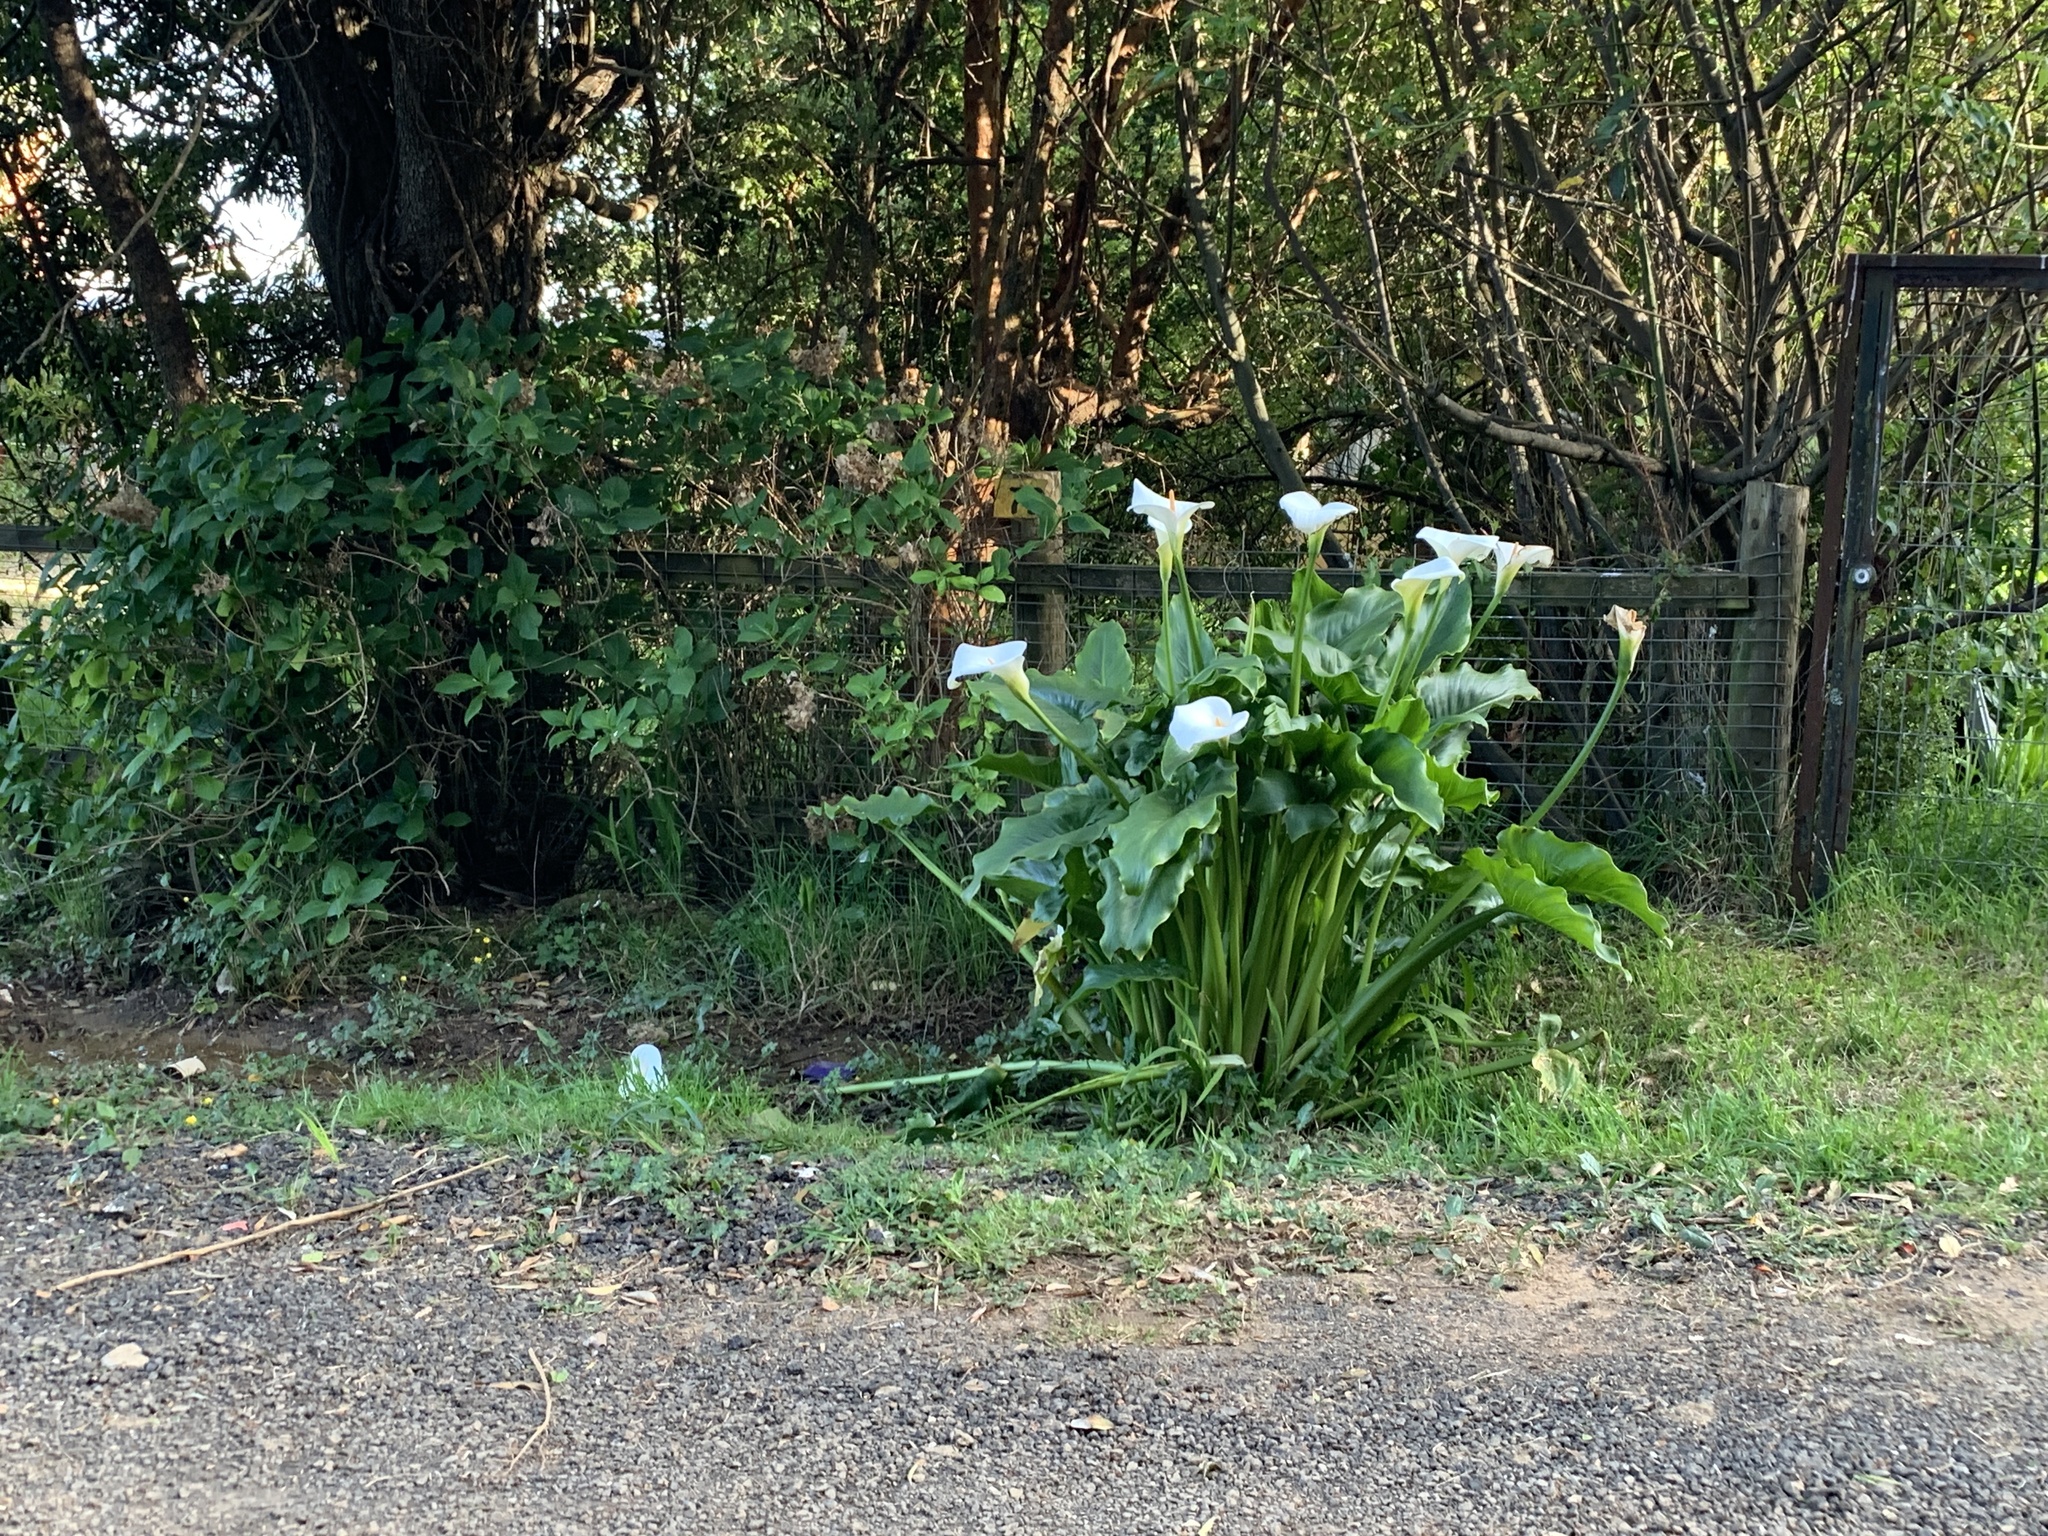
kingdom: Plantae
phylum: Tracheophyta
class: Liliopsida
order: Alismatales
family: Araceae
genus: Zantedeschia
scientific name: Zantedeschia aethiopica
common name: Altar-lily
